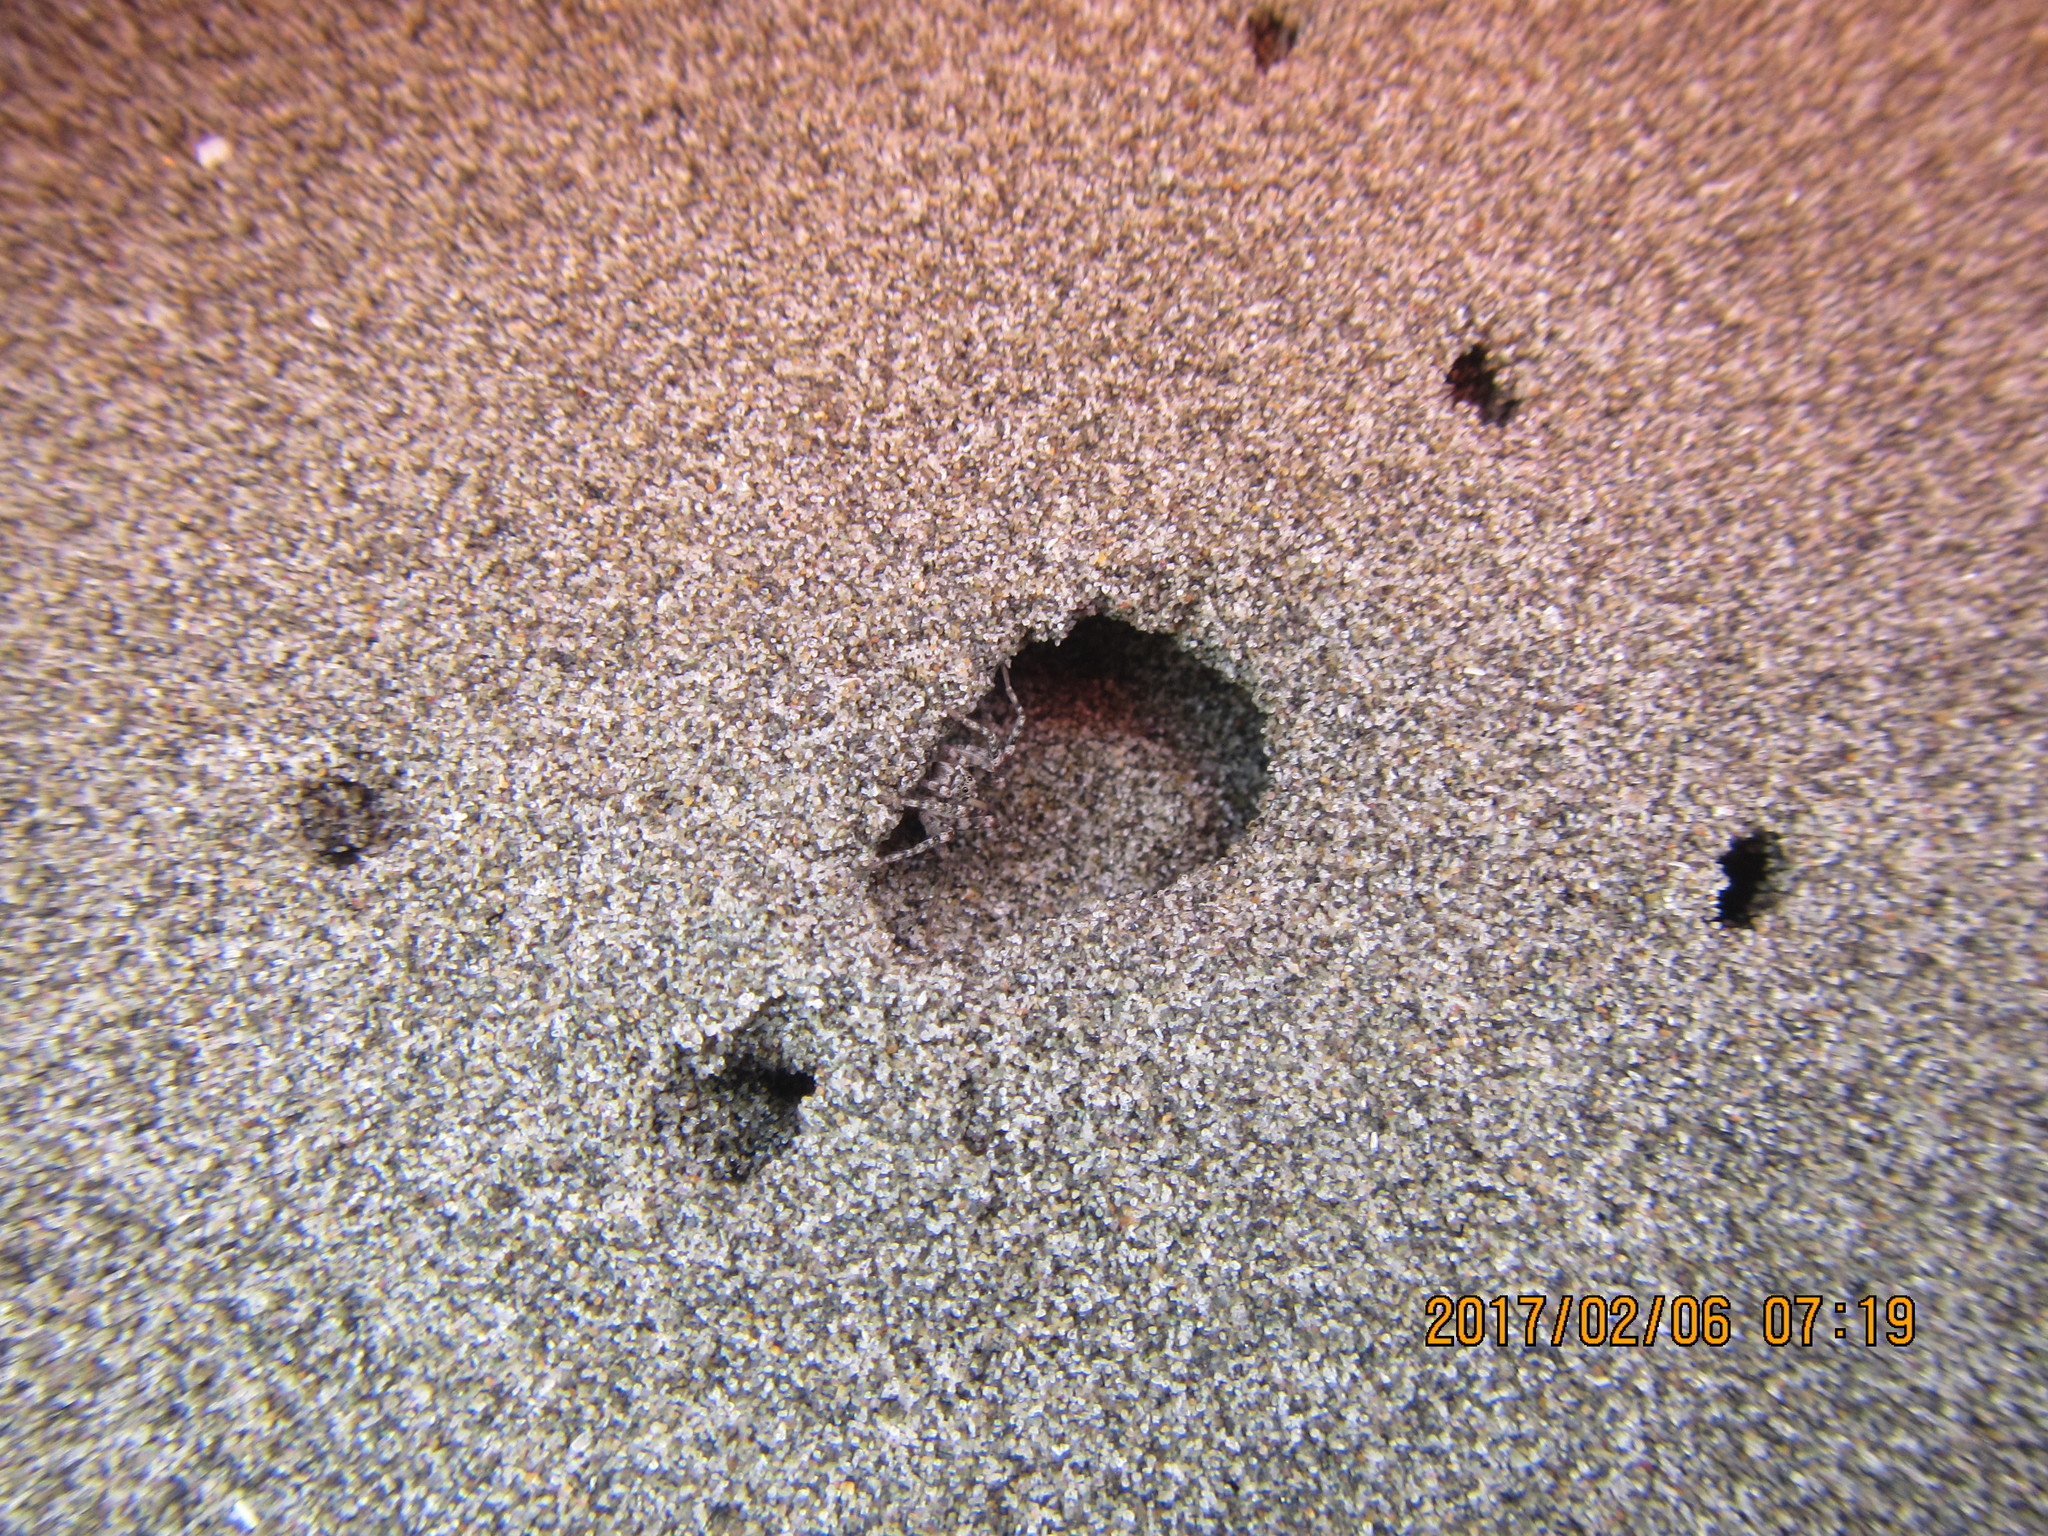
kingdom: Animalia
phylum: Arthropoda
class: Arachnida
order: Araneae
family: Lycosidae
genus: Anoteropsis
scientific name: Anoteropsis litoralis
